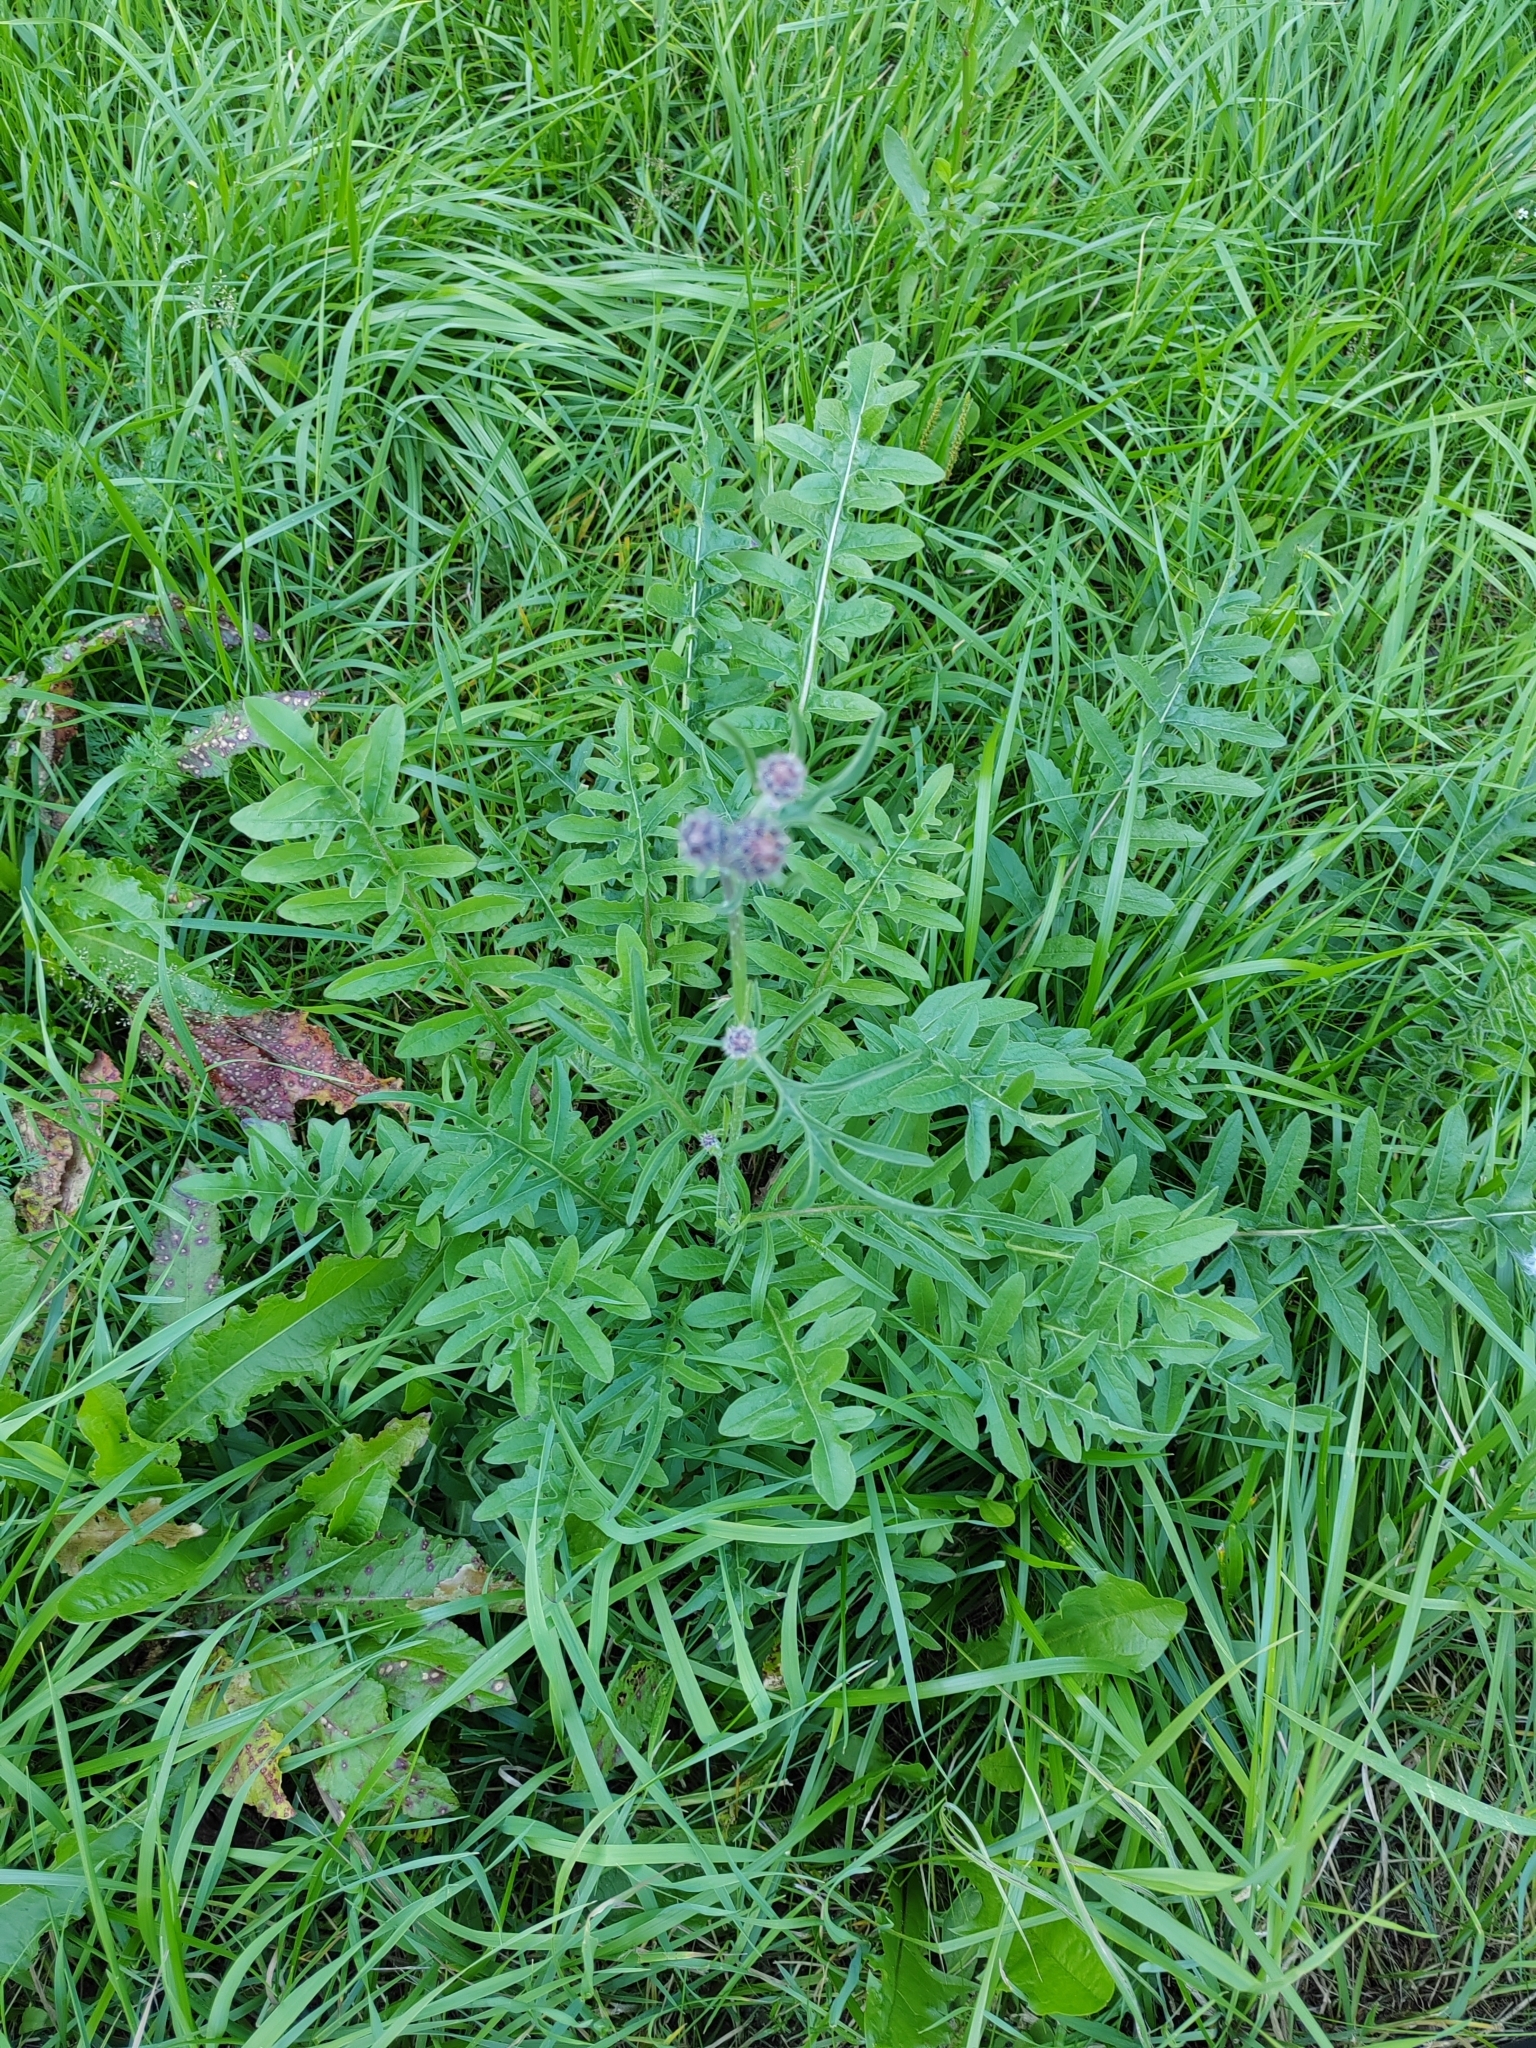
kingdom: Plantae
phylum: Tracheophyta
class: Magnoliopsida
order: Asterales
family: Asteraceae
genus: Centaurea
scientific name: Centaurea scabiosa
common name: Greater knapweed
